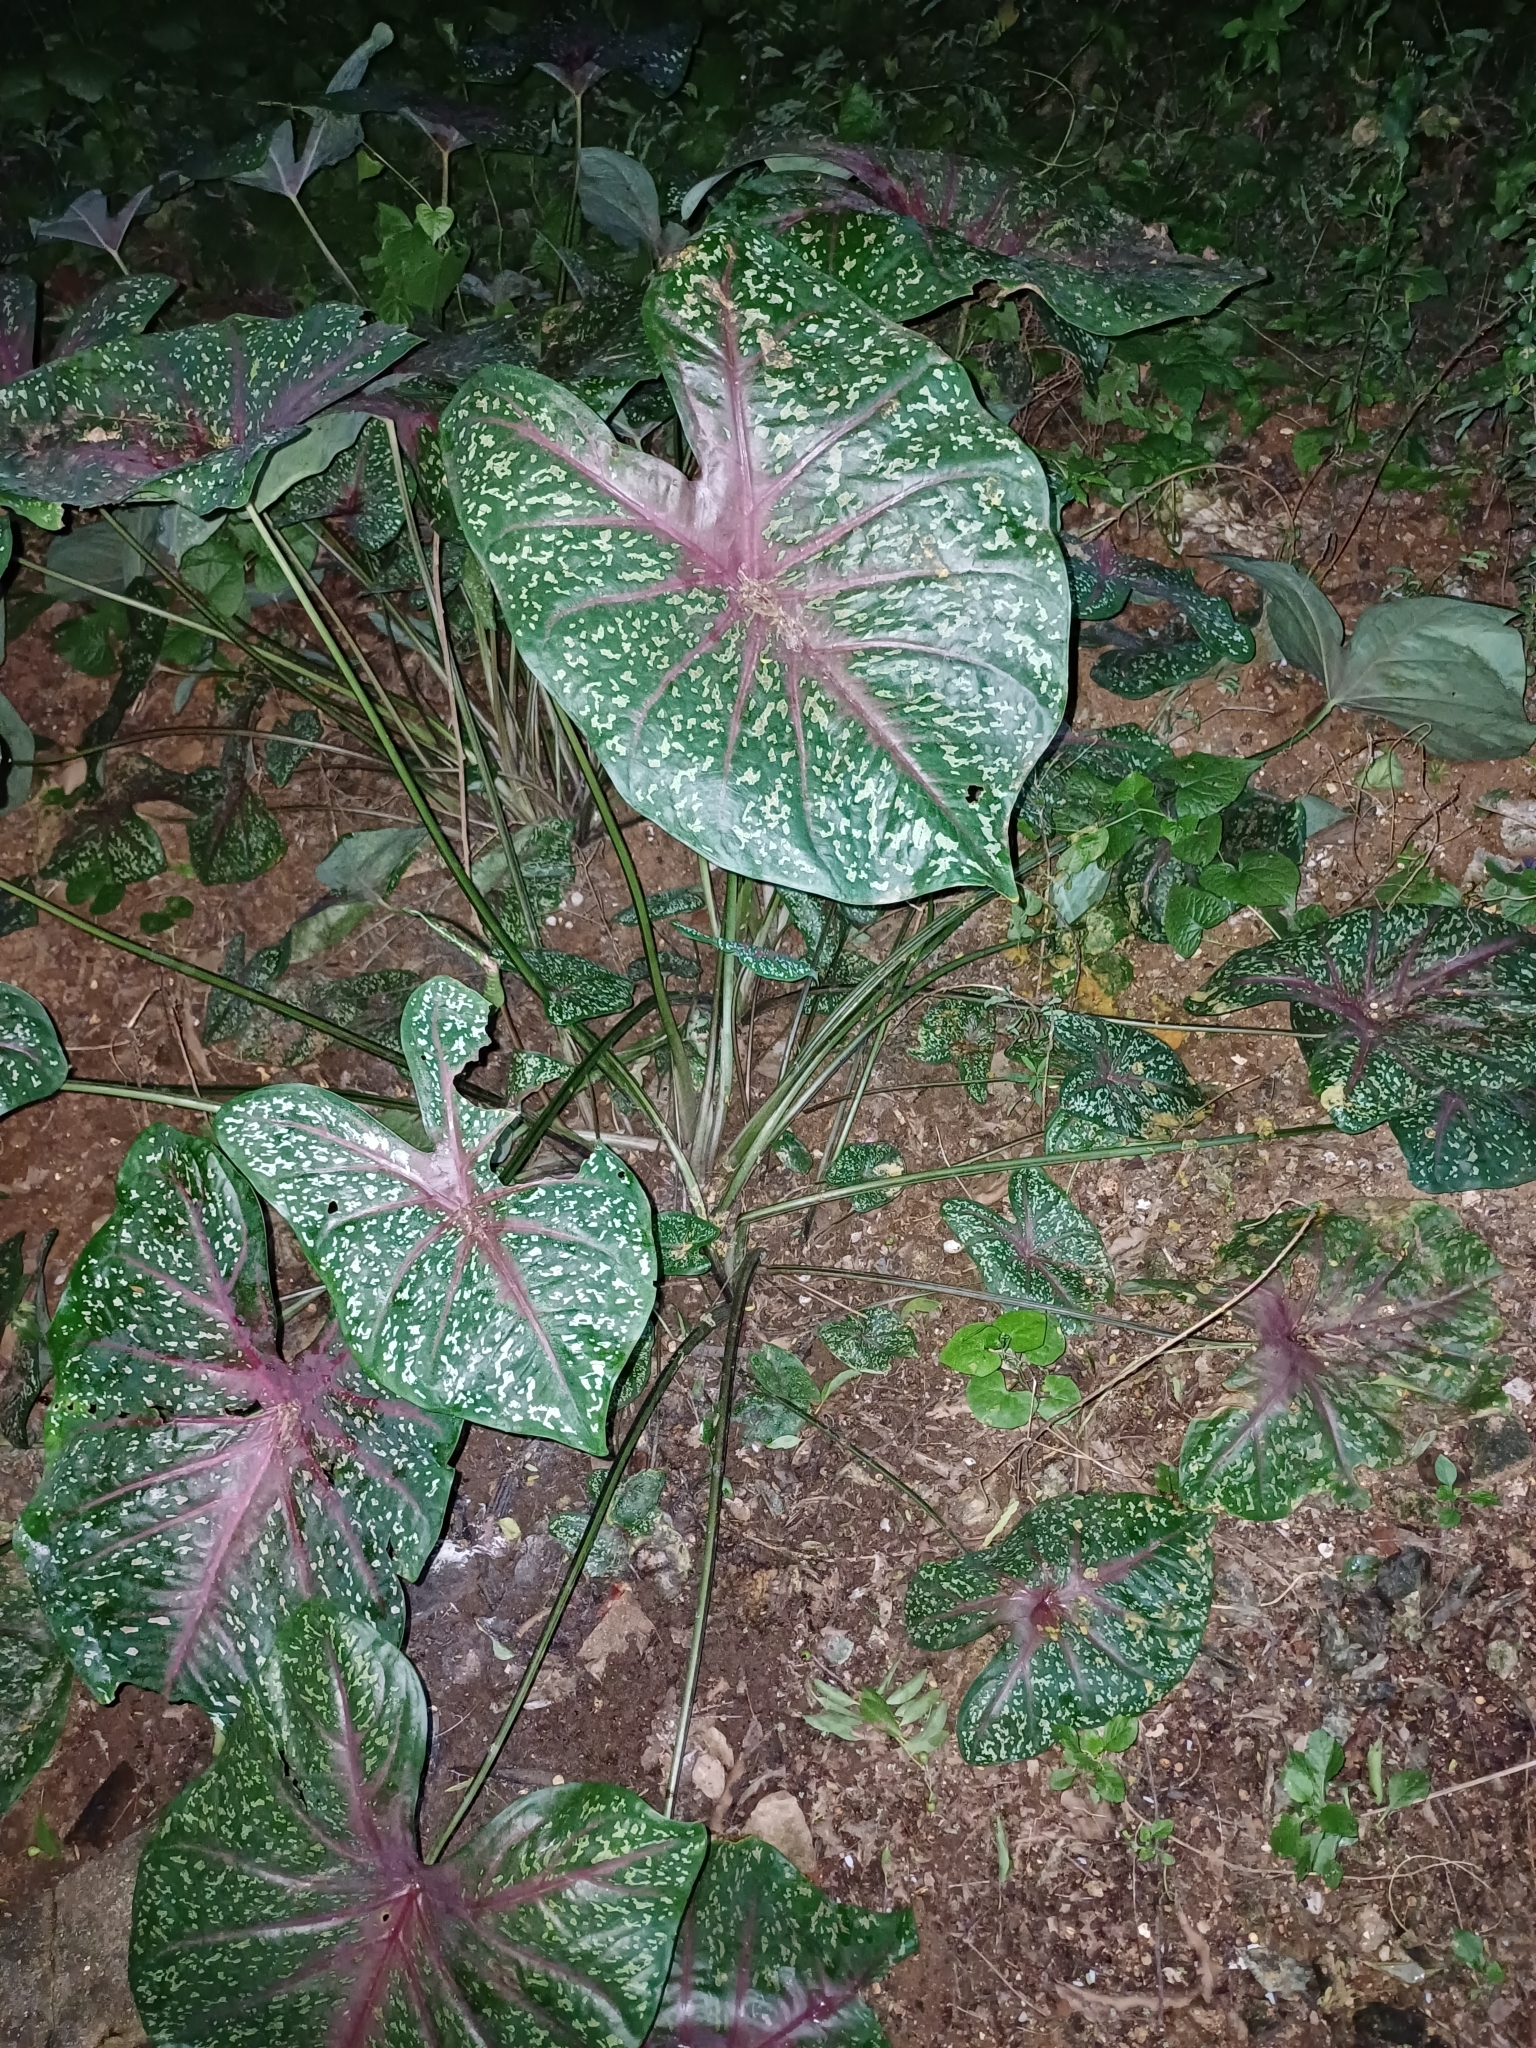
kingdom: Plantae
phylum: Tracheophyta
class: Liliopsida
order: Alismatales
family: Araceae
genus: Caladium
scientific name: Caladium bicolor
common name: Artist's pallet
